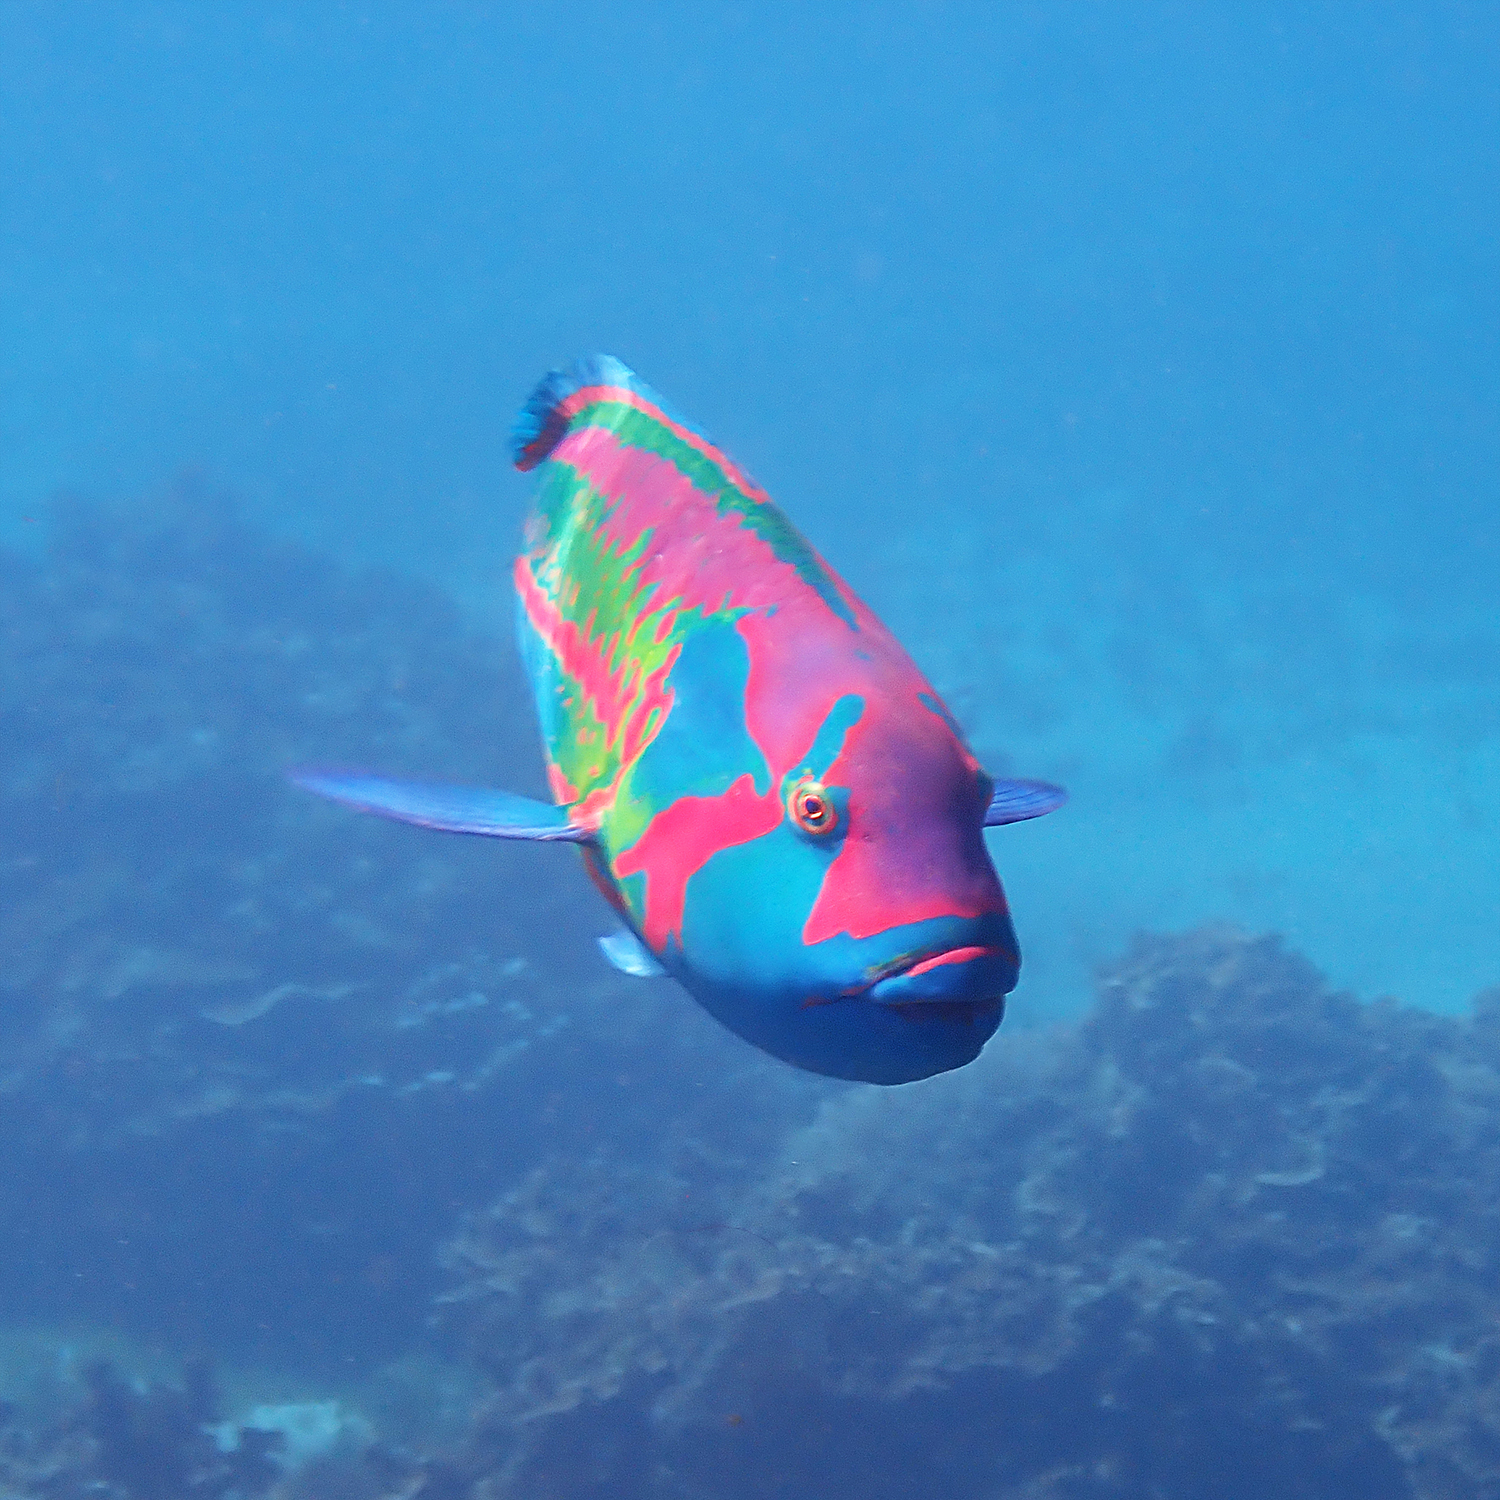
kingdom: Animalia
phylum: Chordata
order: Perciformes
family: Labridae
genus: Thalassoma
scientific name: Thalassoma purpureum
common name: Parrotfish
